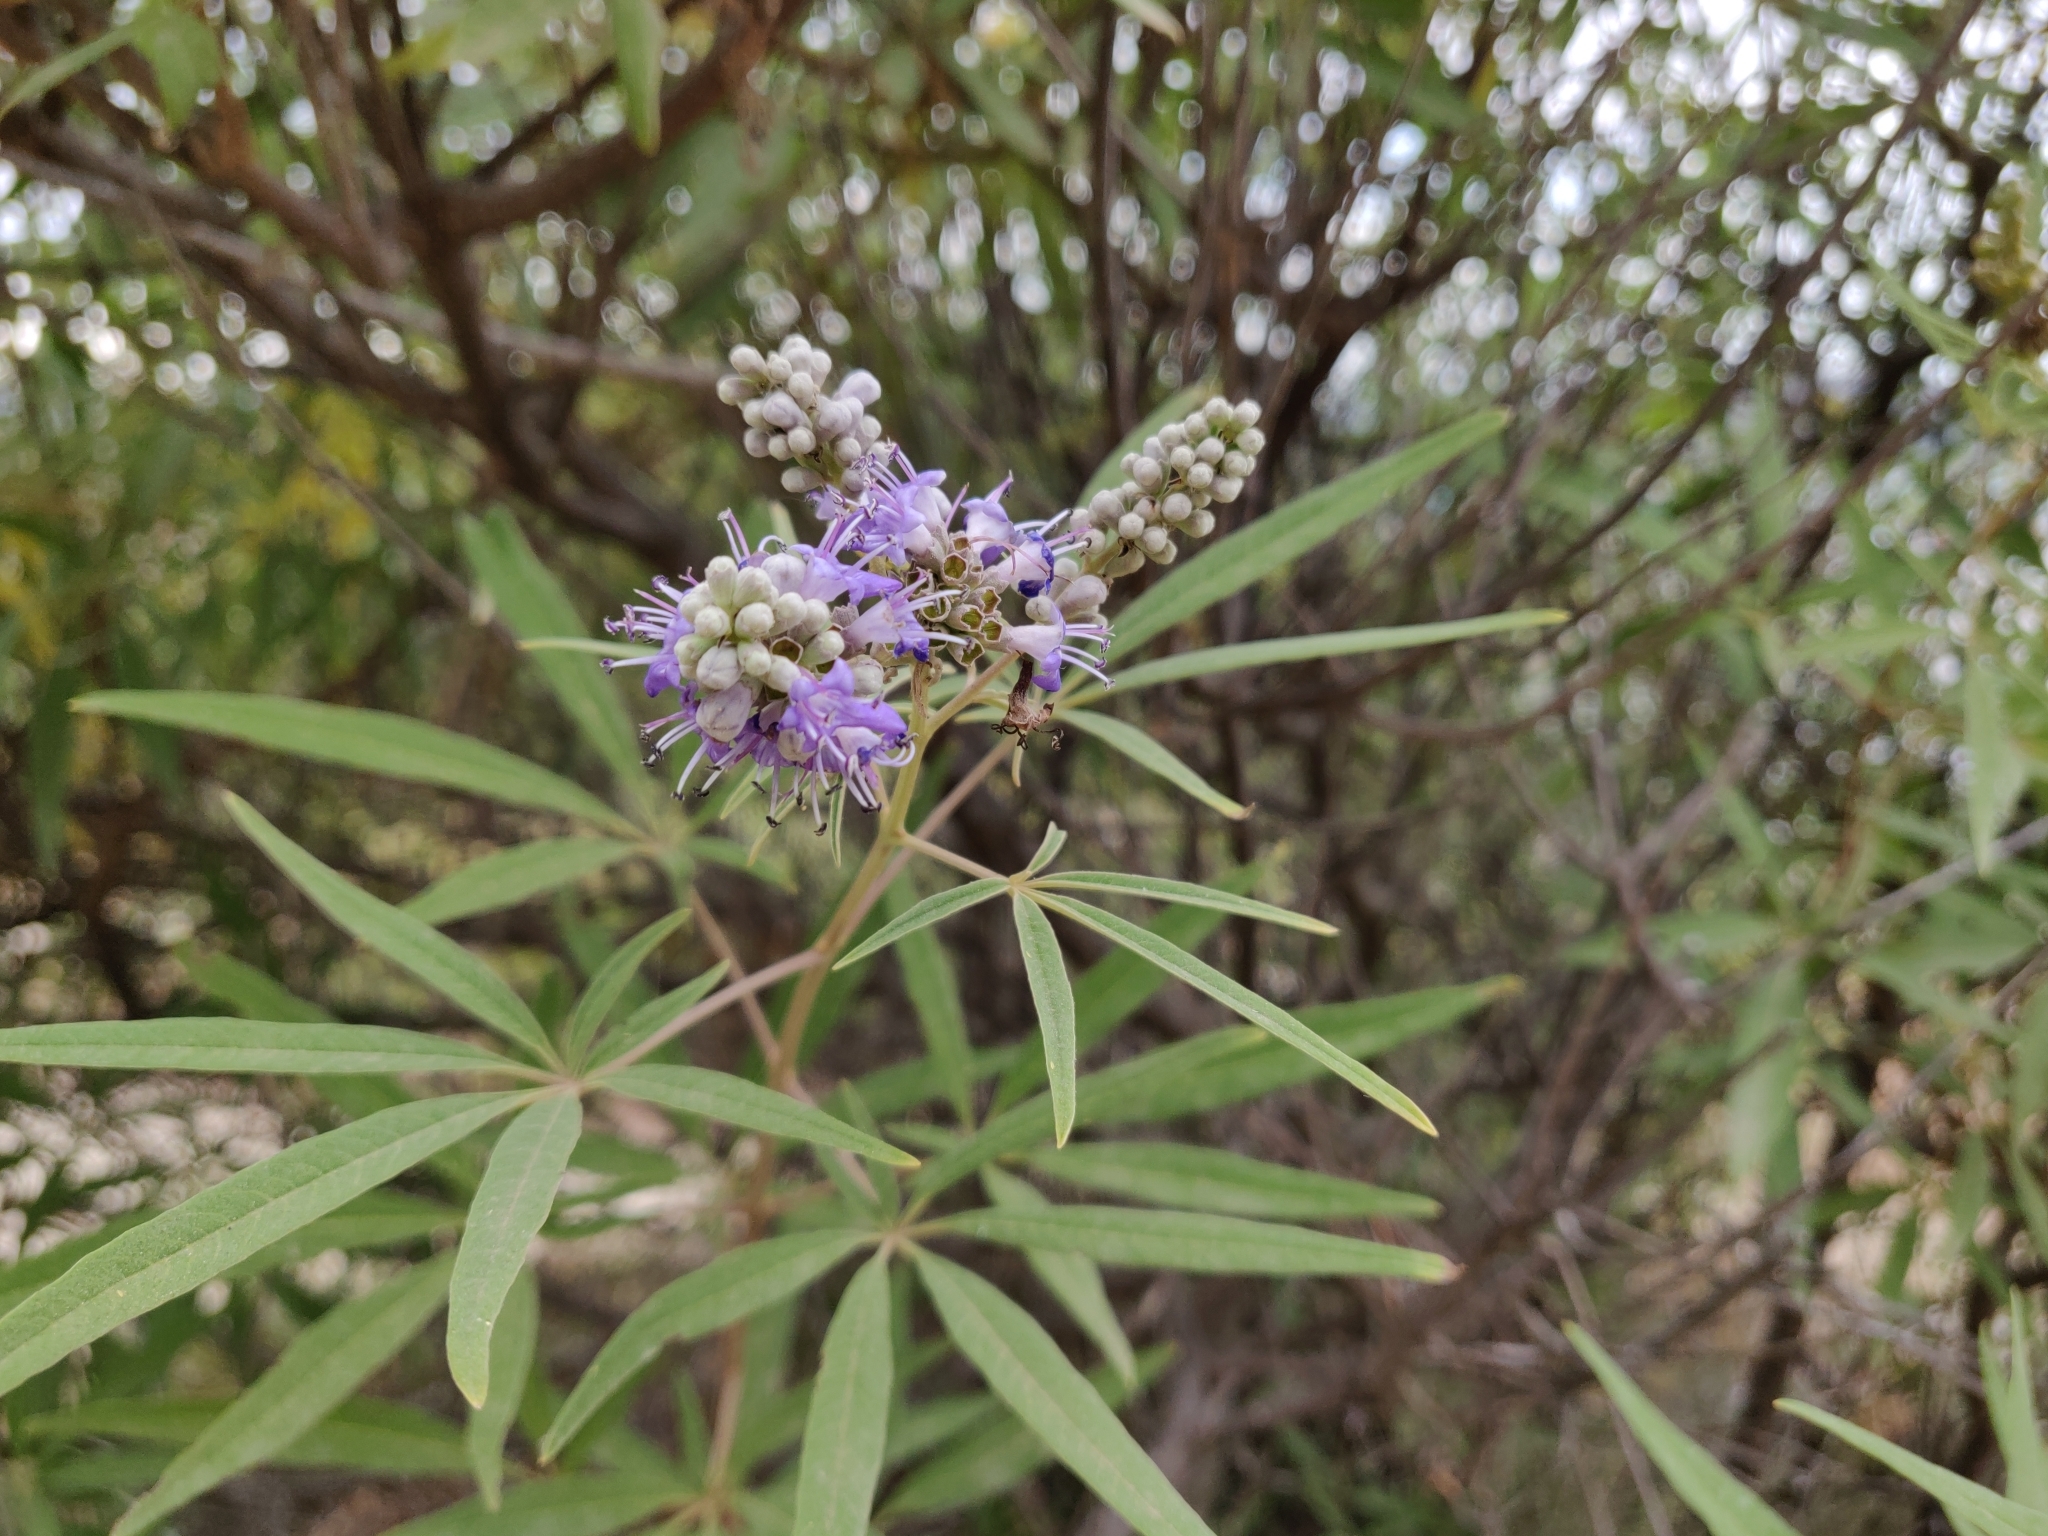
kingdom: Plantae
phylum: Tracheophyta
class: Magnoliopsida
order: Lamiales
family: Lamiaceae
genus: Vitex
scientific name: Vitex agnus-castus
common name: Chasteberry
